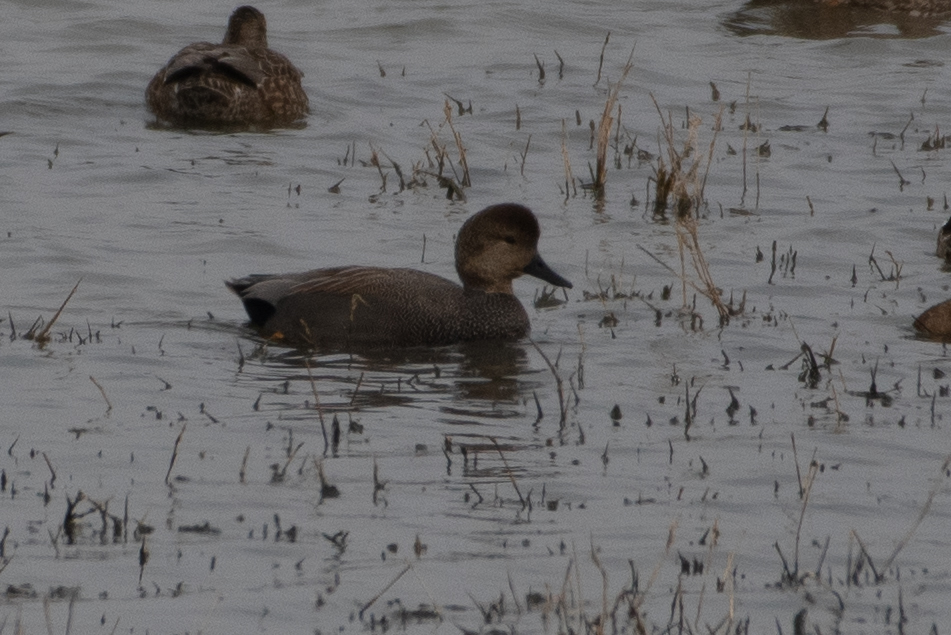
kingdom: Animalia
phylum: Chordata
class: Aves
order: Anseriformes
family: Anatidae
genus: Mareca
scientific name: Mareca strepera
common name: Gadwall
